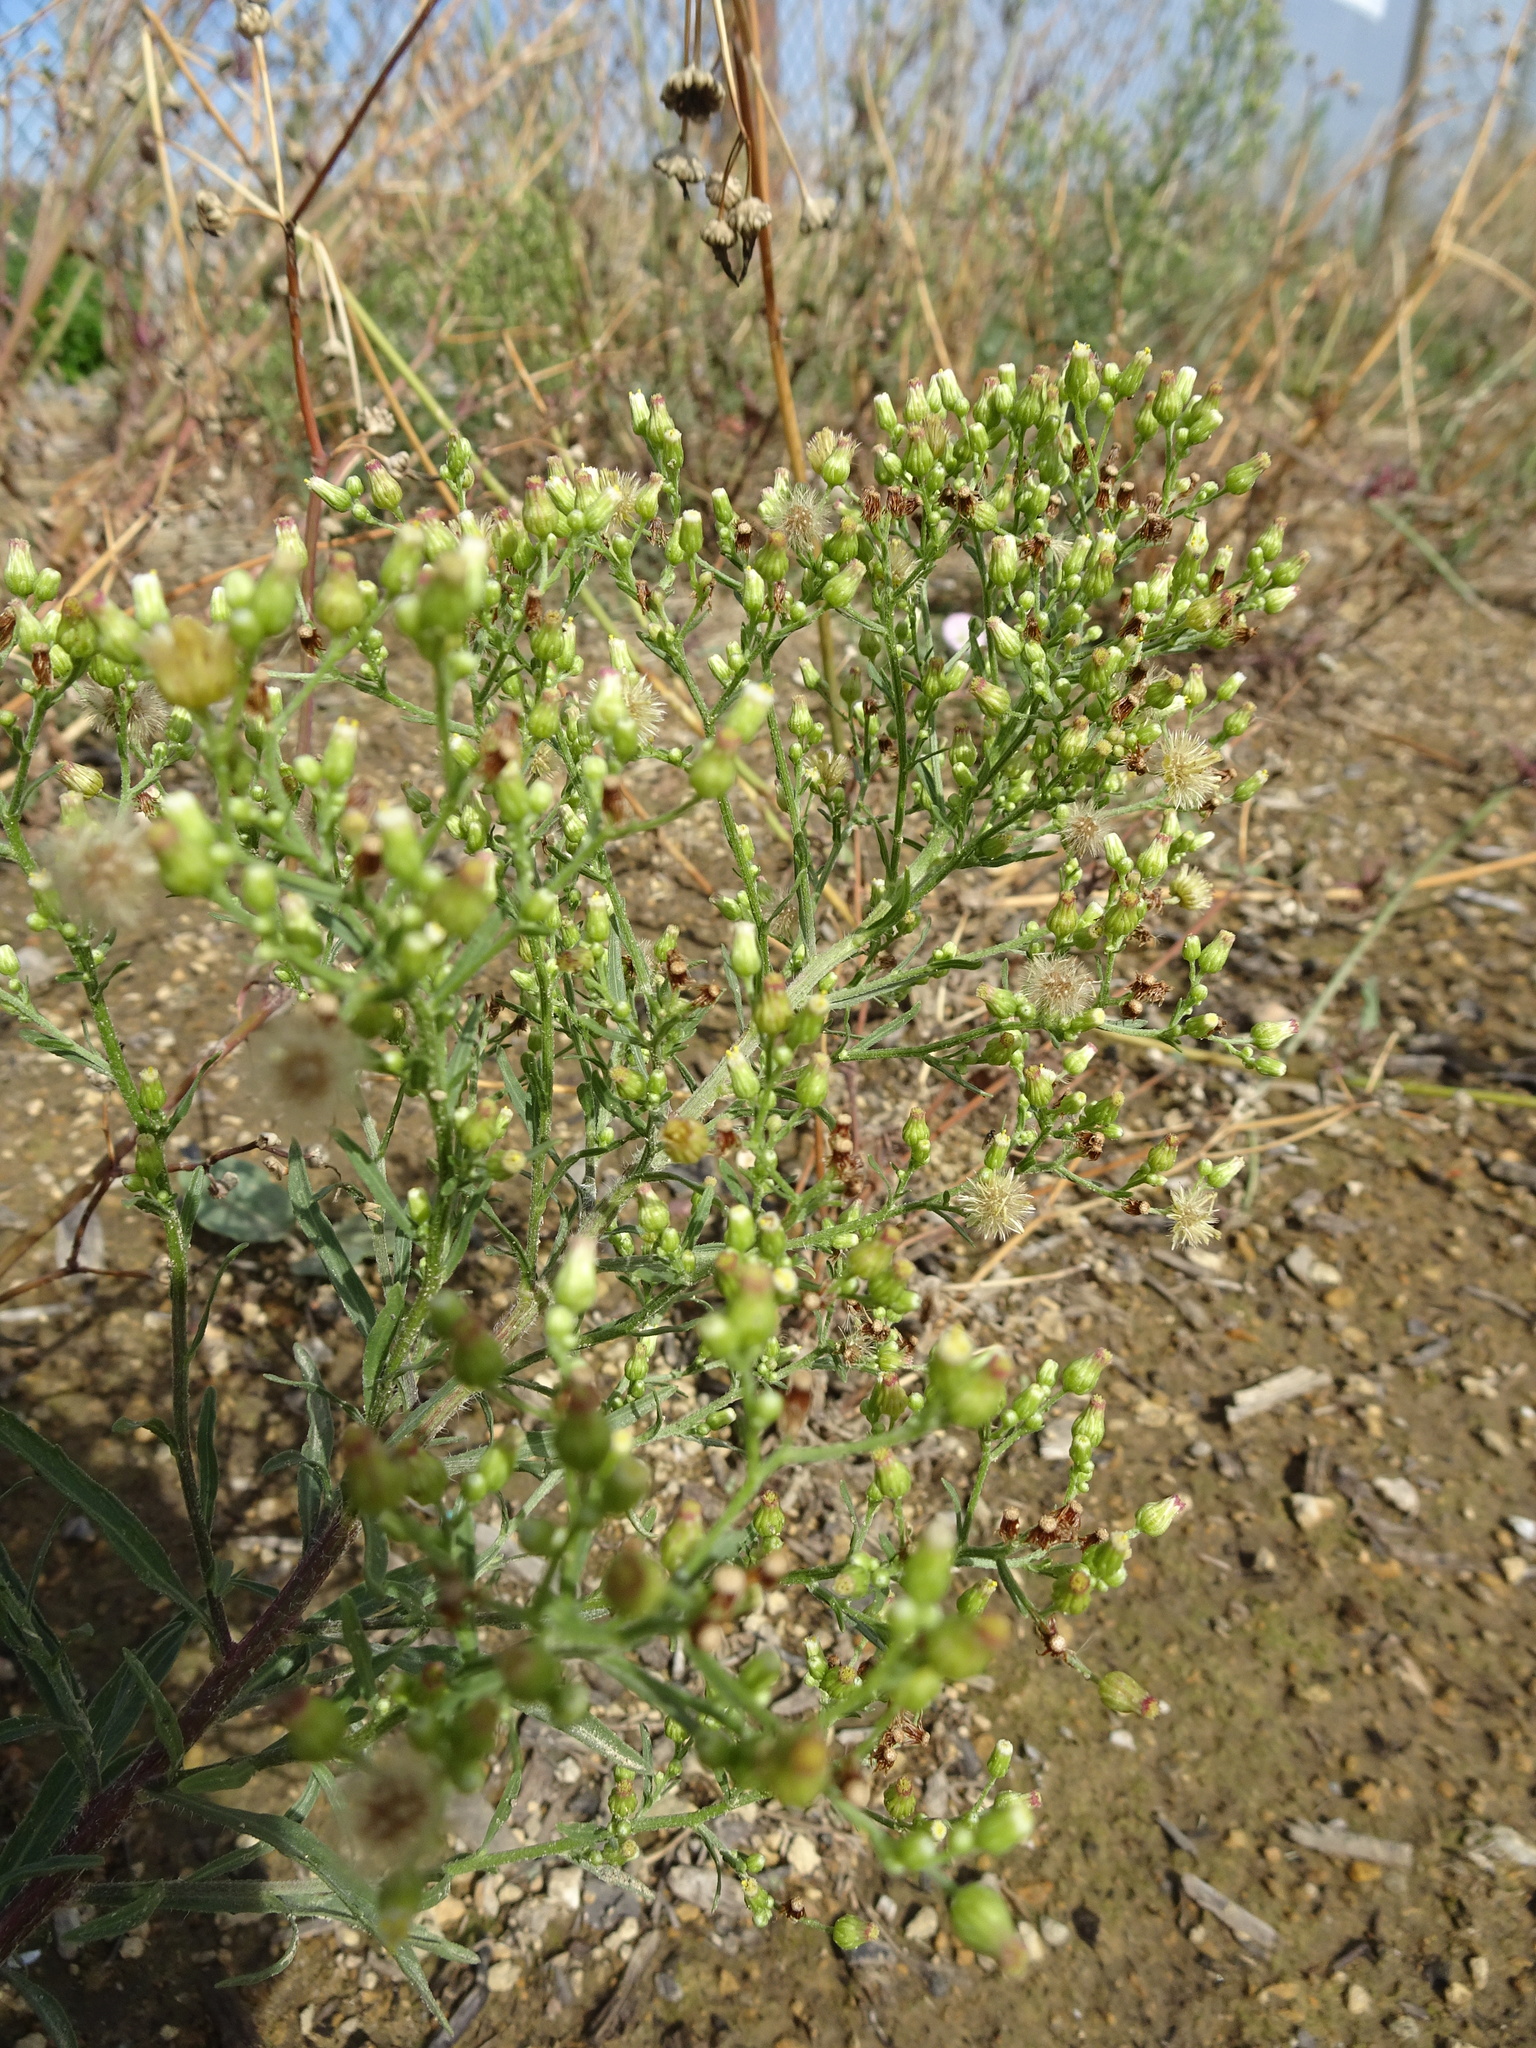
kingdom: Plantae
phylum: Tracheophyta
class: Magnoliopsida
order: Asterales
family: Asteraceae
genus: Erigeron
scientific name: Erigeron canadensis
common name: Canadian fleabane
